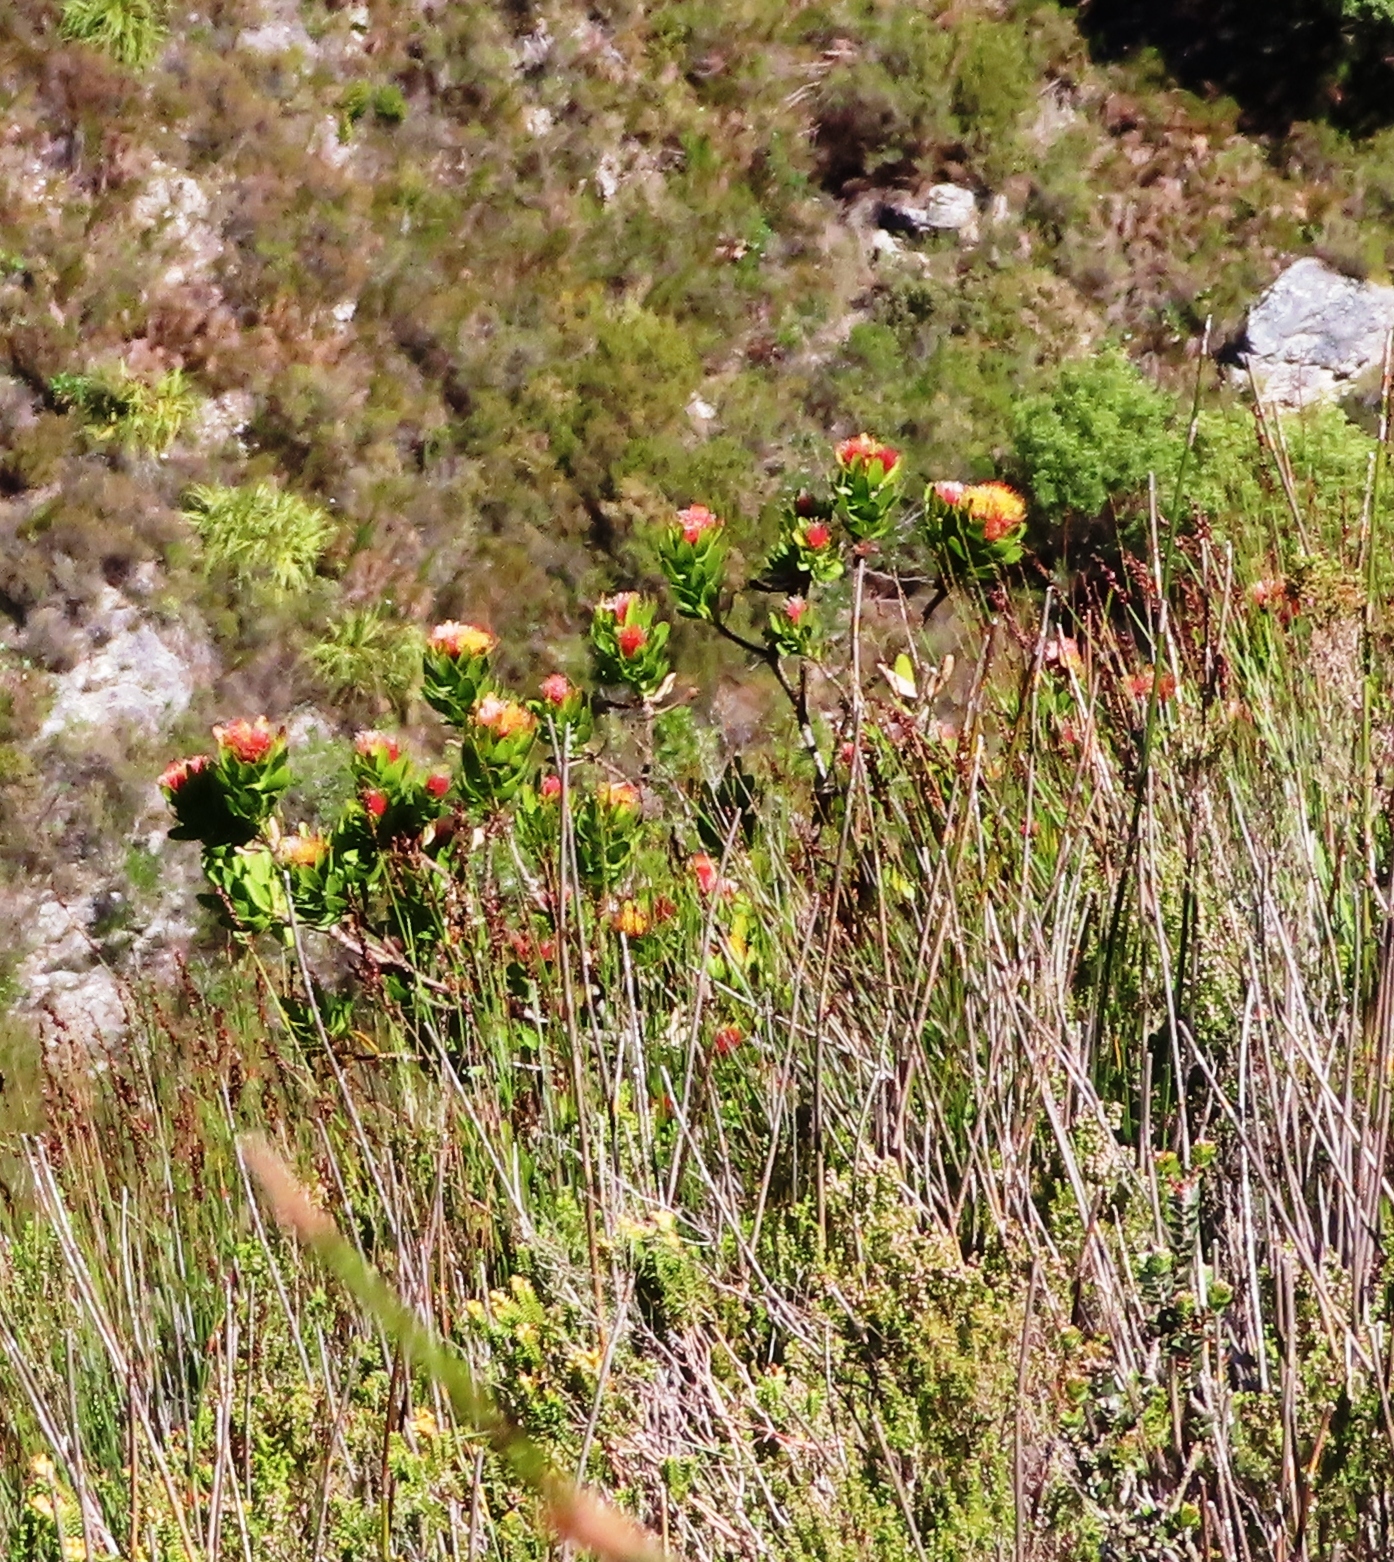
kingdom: Plantae
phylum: Tracheophyta
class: Magnoliopsida
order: Proteales
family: Proteaceae
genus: Leucospermum
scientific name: Leucospermum oleifolium
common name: Matches
